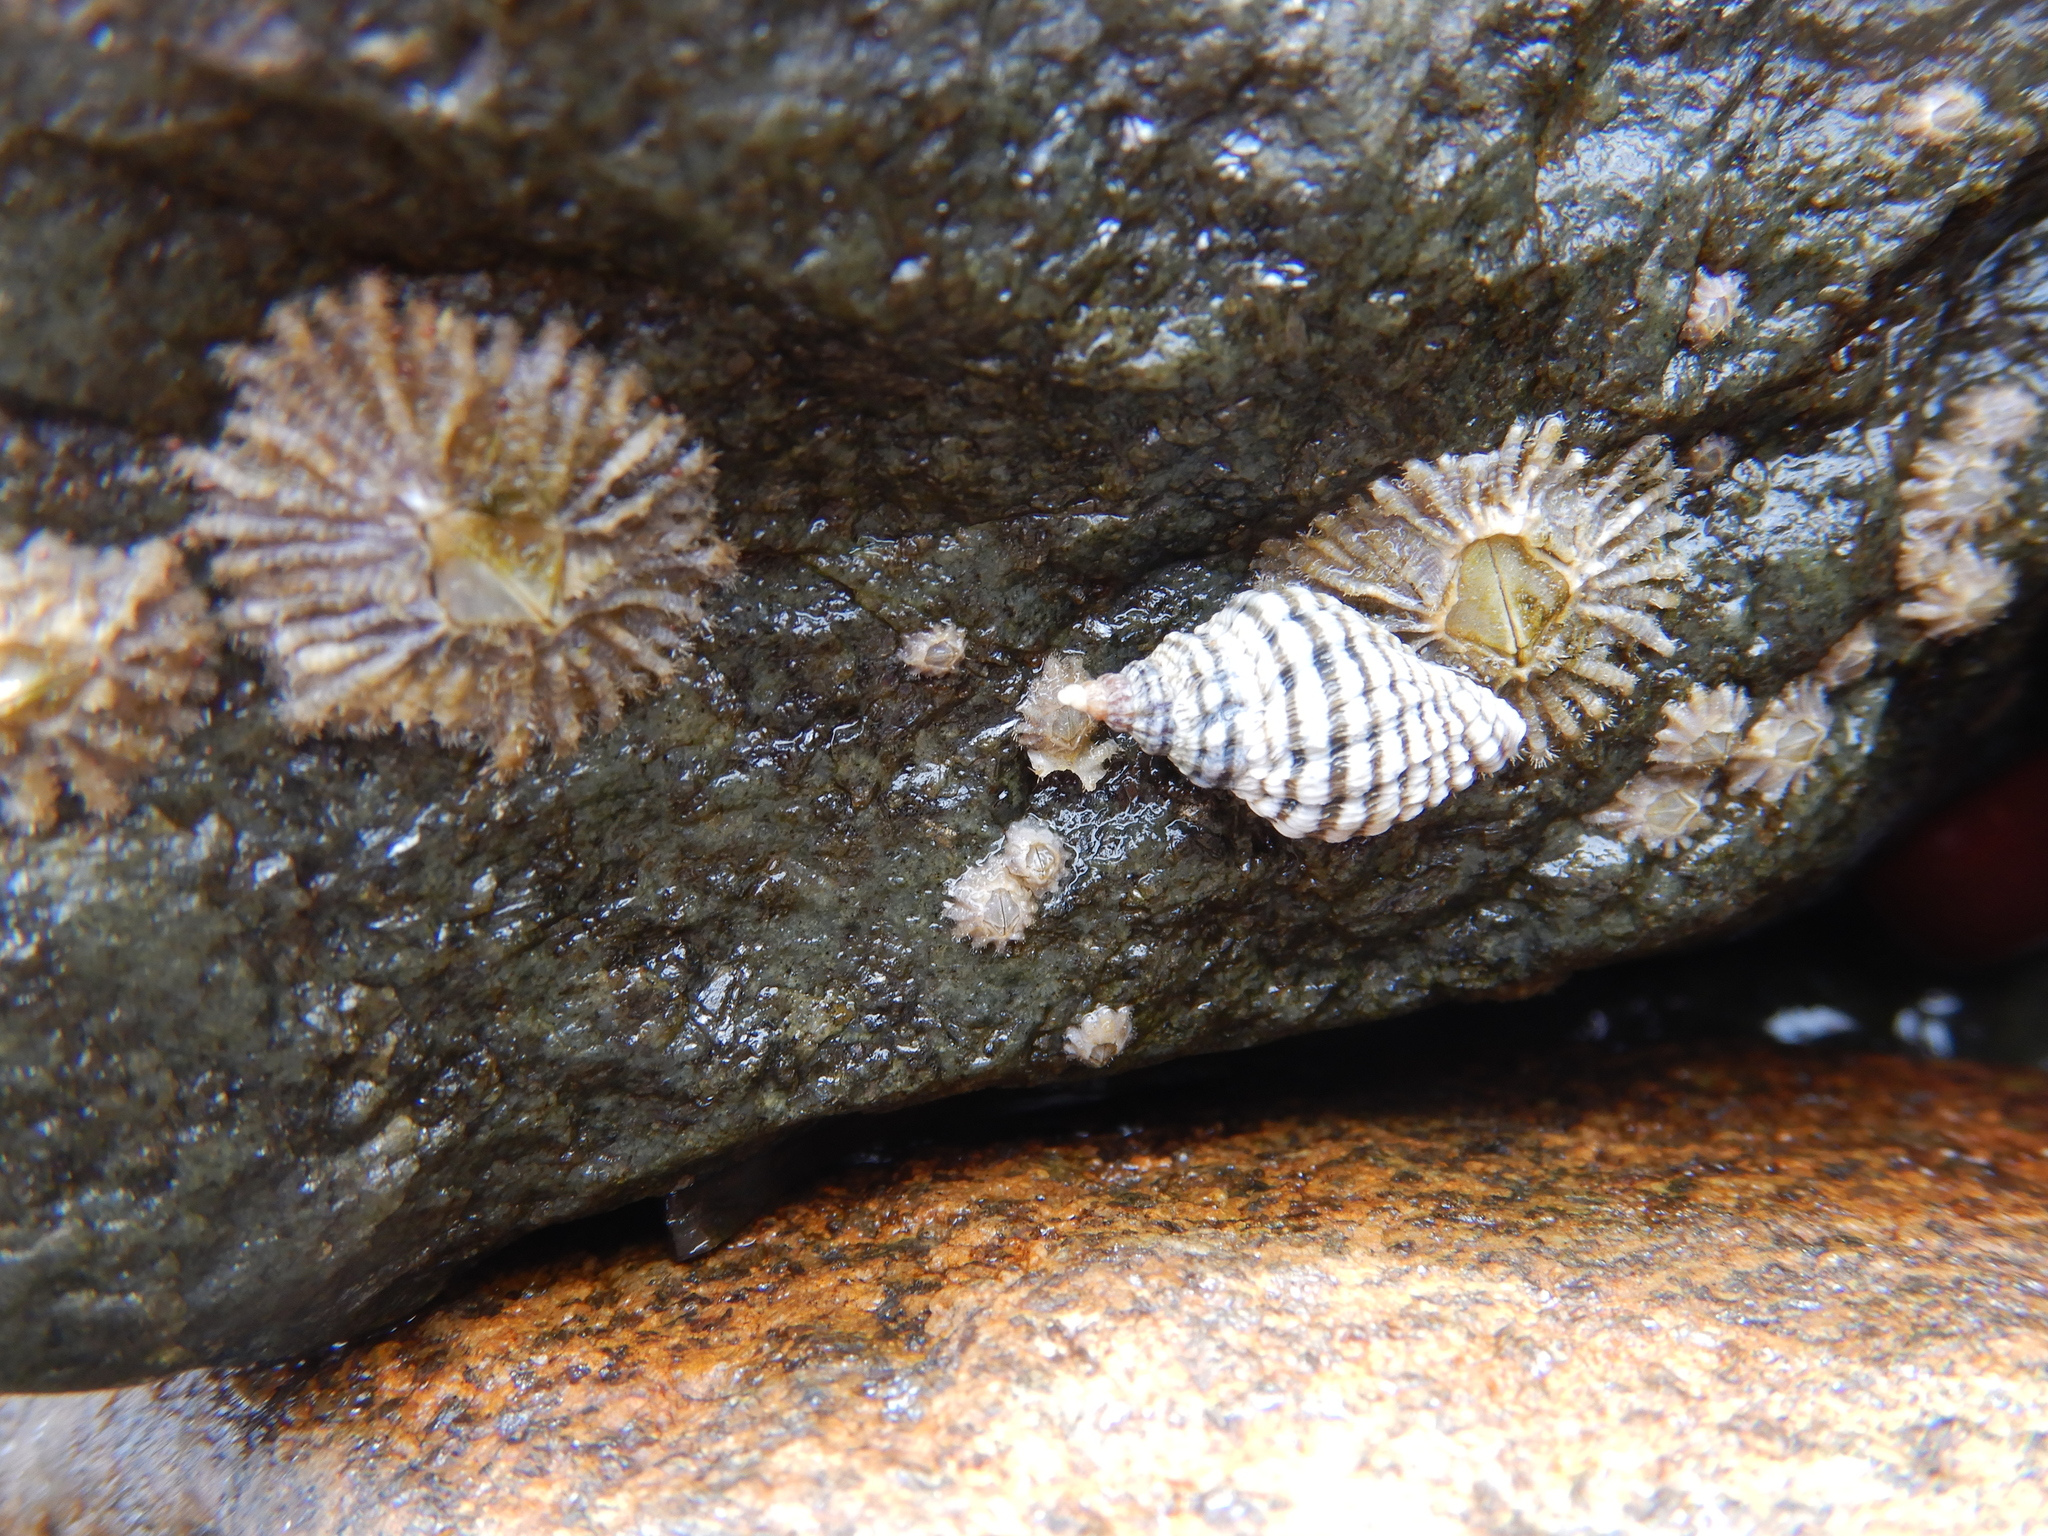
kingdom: Animalia
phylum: Arthropoda
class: Maxillopoda
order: Sessilia
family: Tetraclitidae
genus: Tetraclitella
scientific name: Tetraclitella purpurascens
